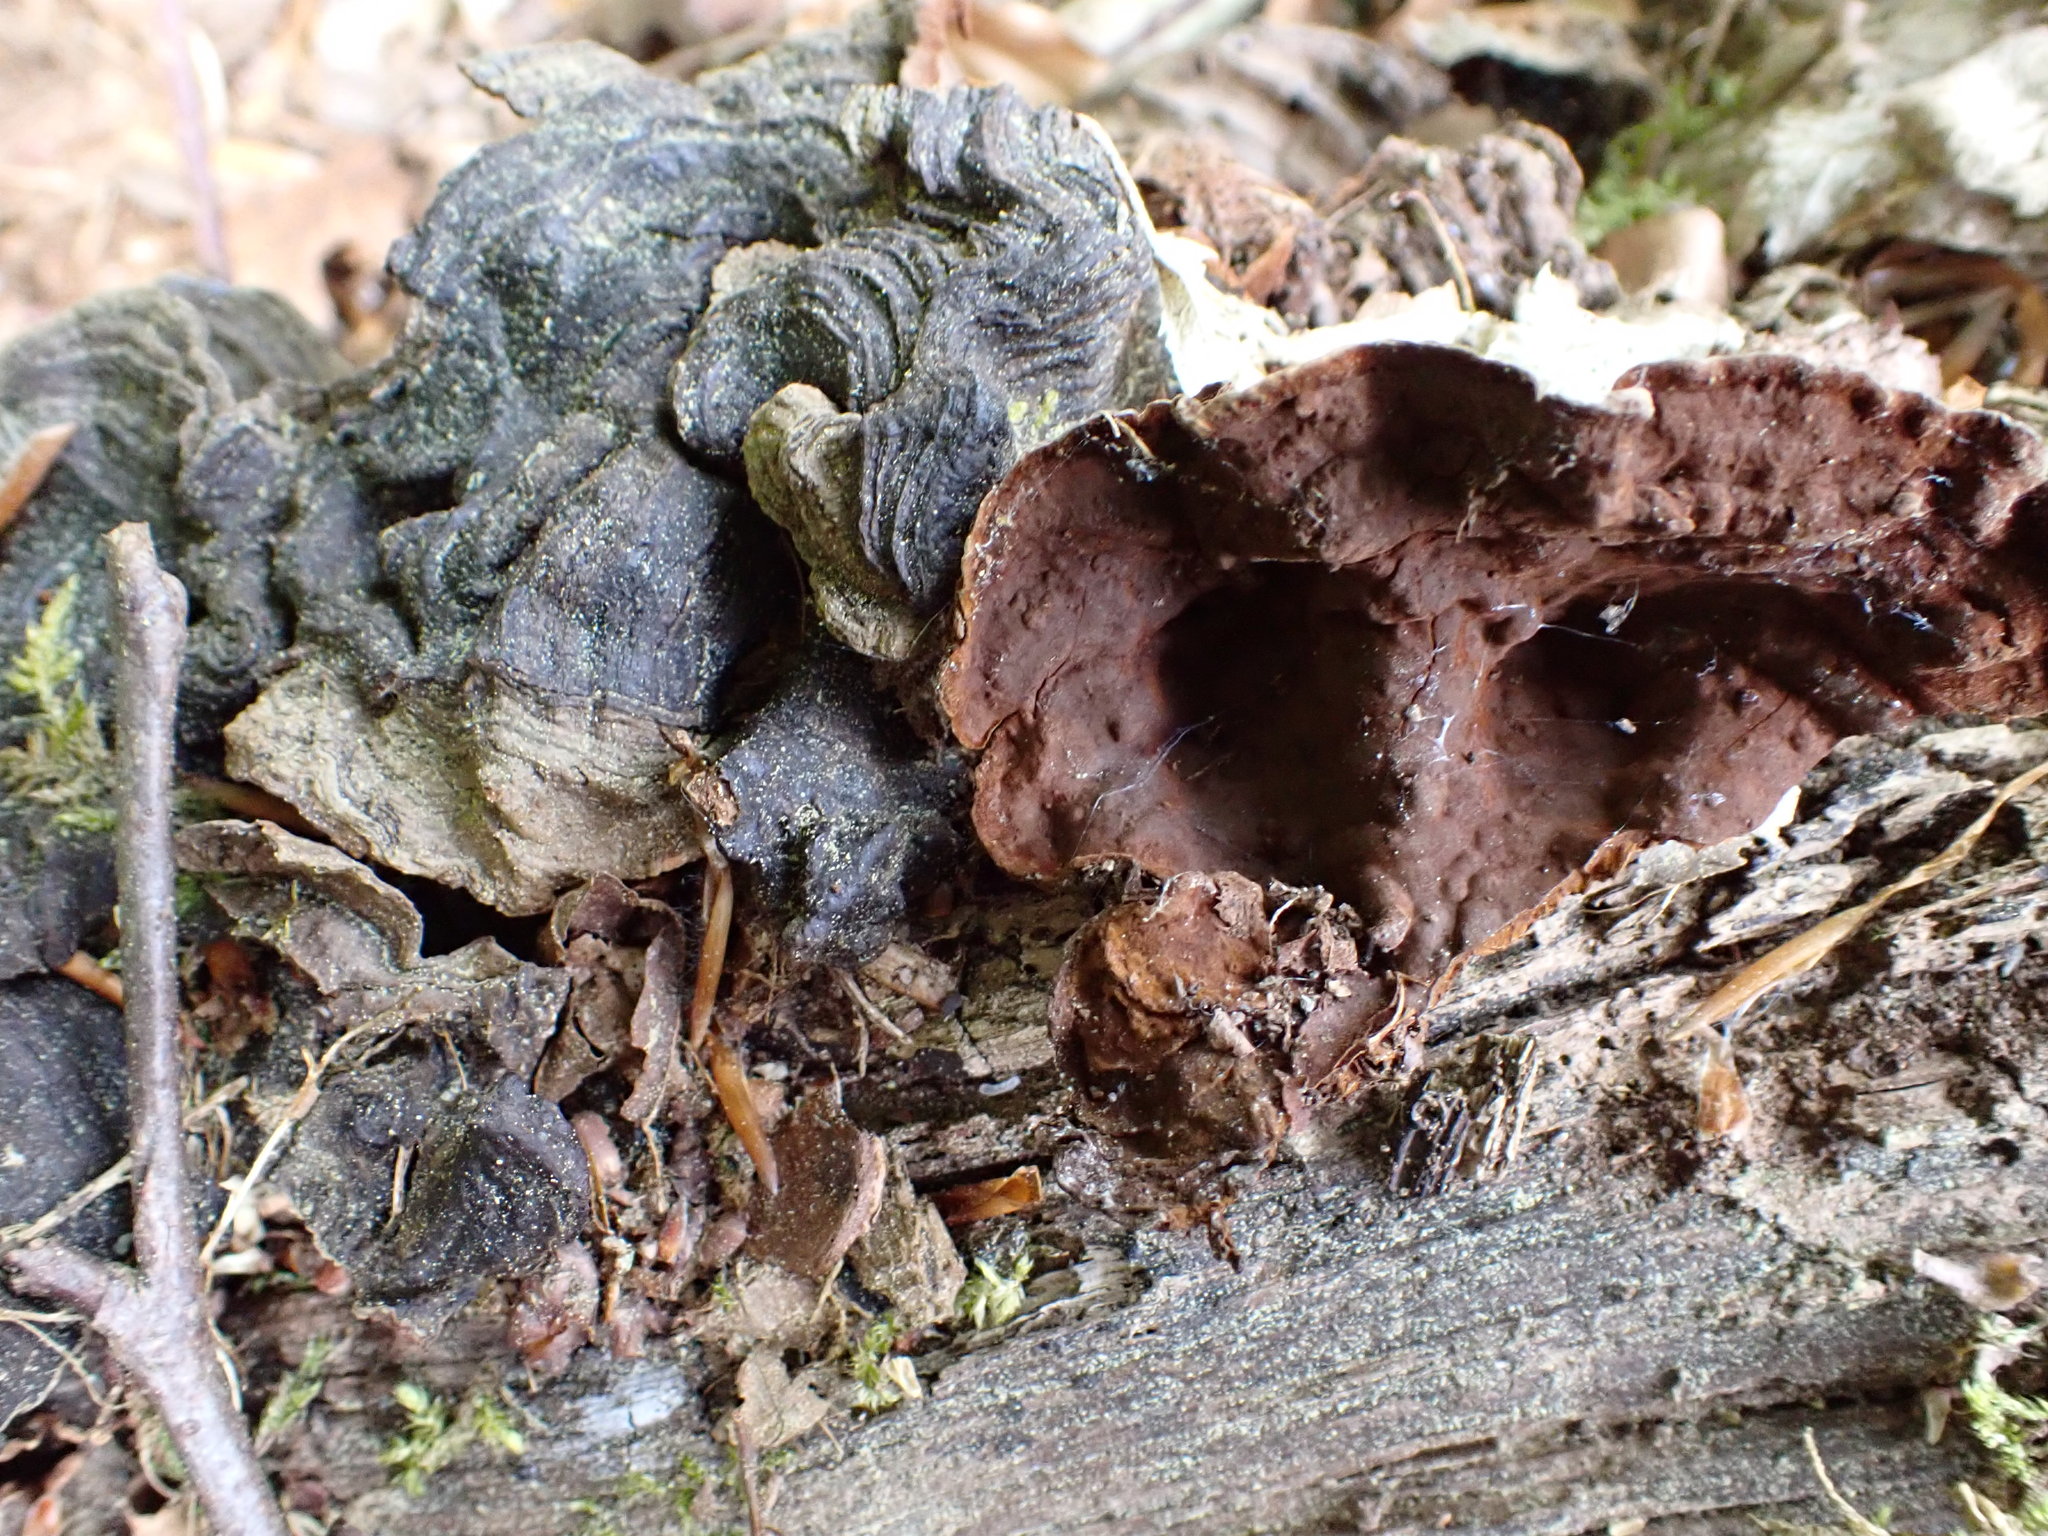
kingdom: Fungi
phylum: Basidiomycota
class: Agaricomycetes
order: Hymenochaetales
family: Hymenochaetaceae
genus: Hymenochaete
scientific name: Hymenochaete rubiginosa
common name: Oak curtain crust
